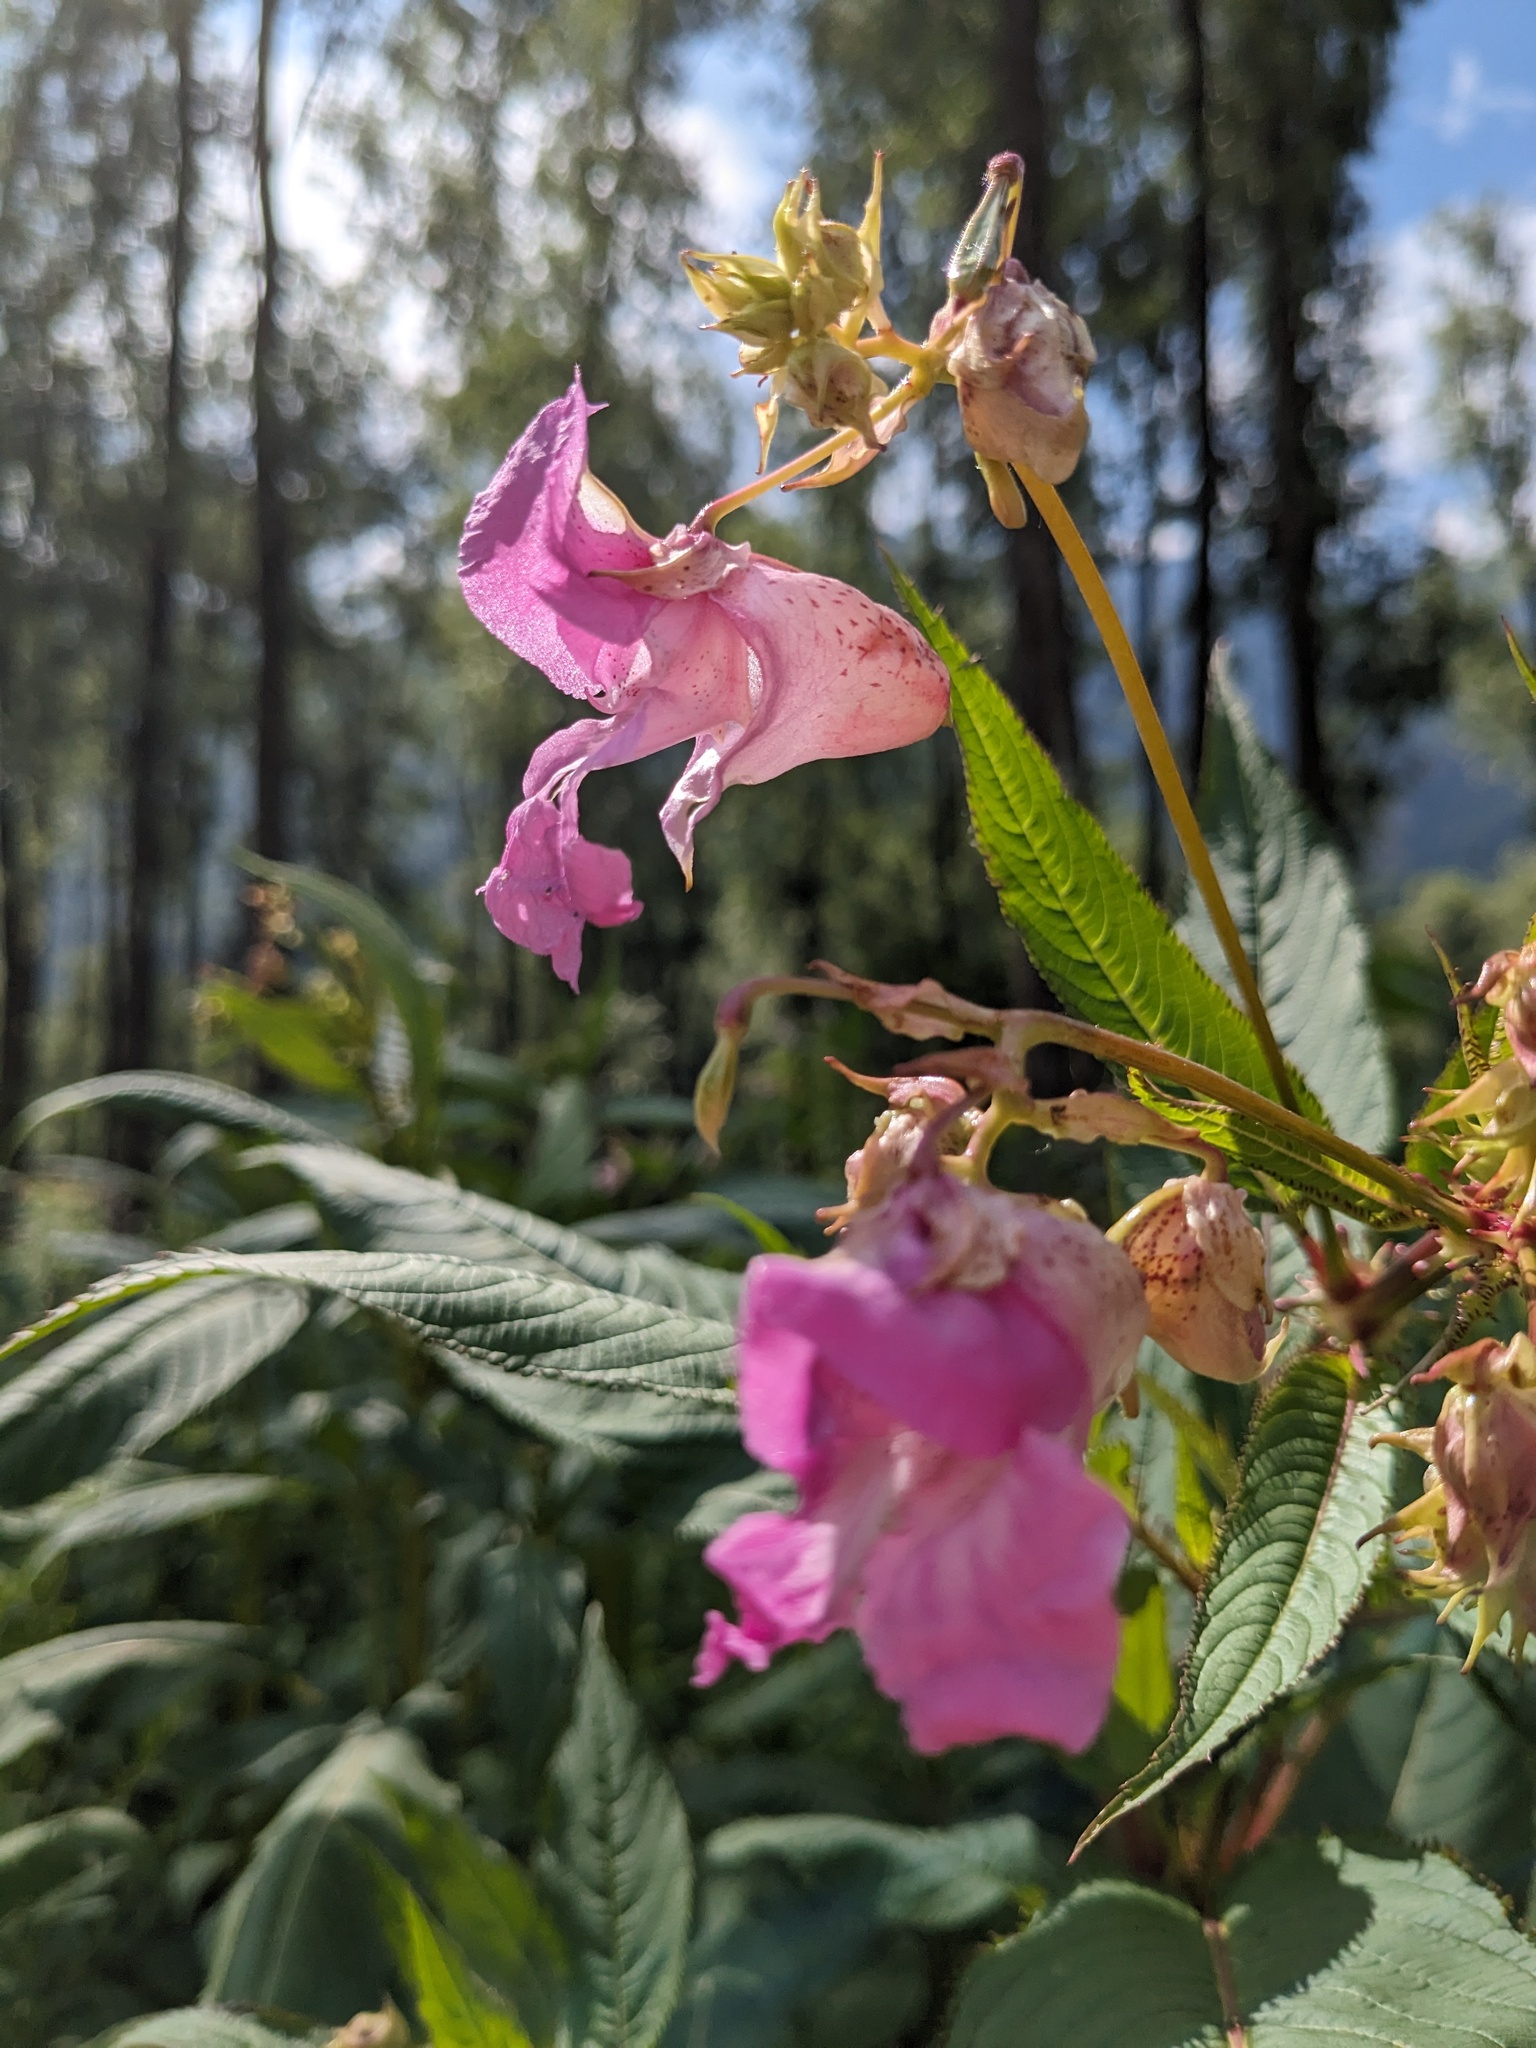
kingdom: Plantae
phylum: Tracheophyta
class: Magnoliopsida
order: Ericales
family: Balsaminaceae
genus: Impatiens
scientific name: Impatiens glandulifera
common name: Himalayan balsam
